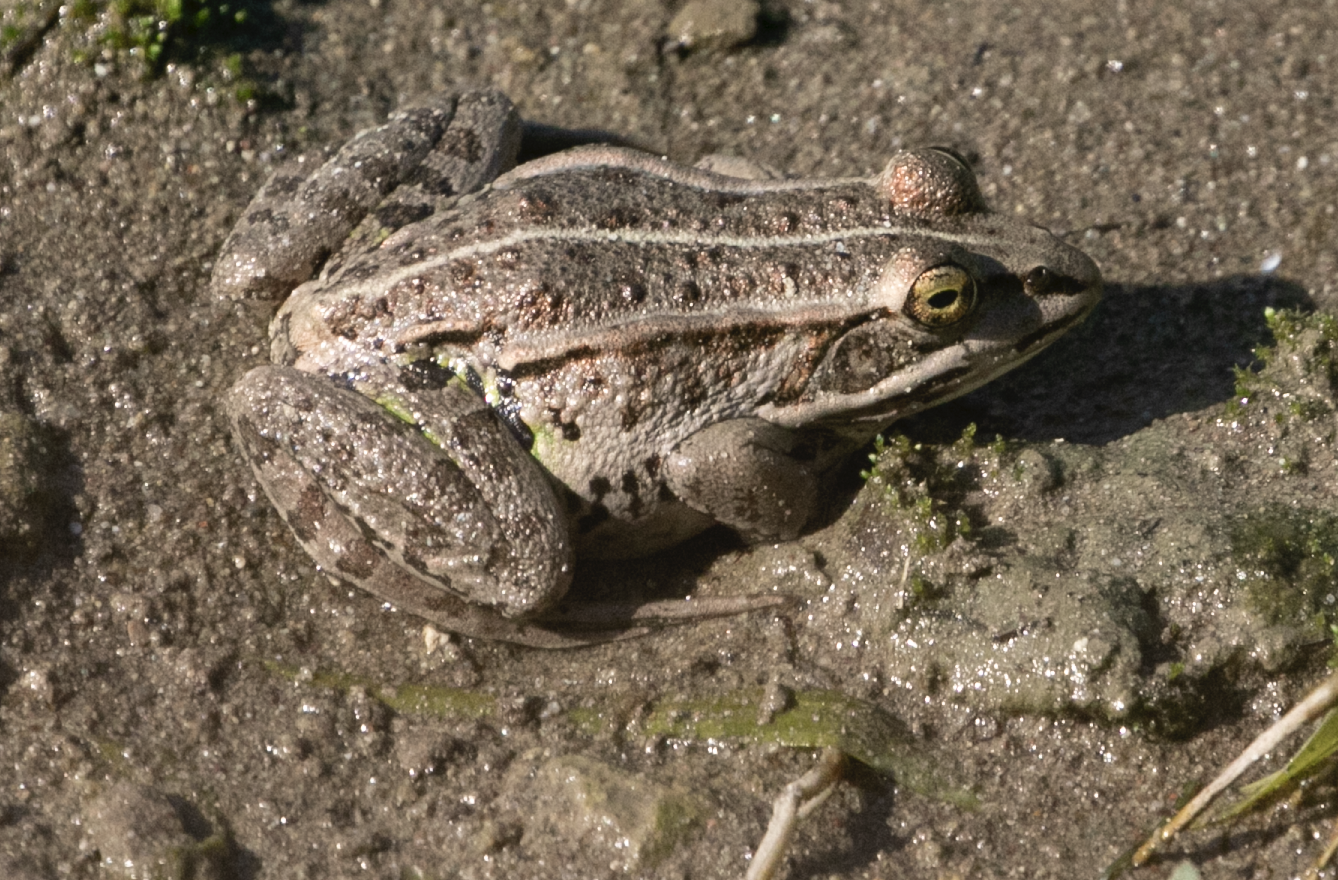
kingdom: Animalia
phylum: Chordata
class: Amphibia
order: Anura
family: Ranidae
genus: Pelophylax
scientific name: Pelophylax
